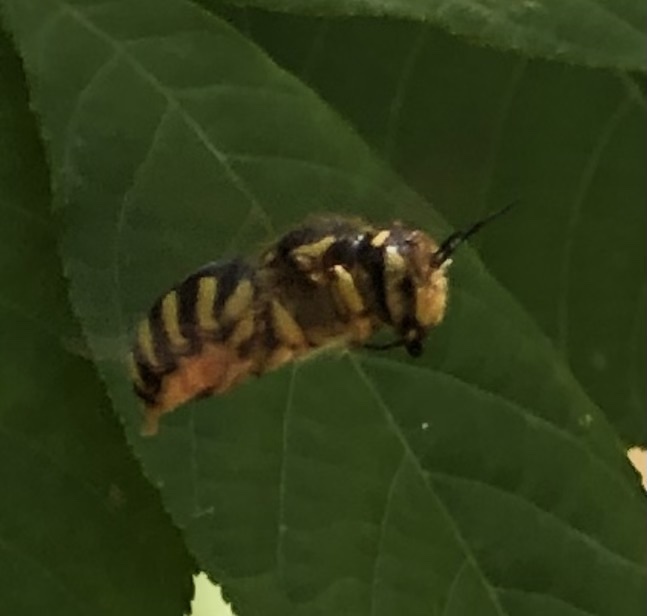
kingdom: Animalia
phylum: Arthropoda
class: Insecta
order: Hymenoptera
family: Megachilidae
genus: Anthidium
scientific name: Anthidium florentinum
